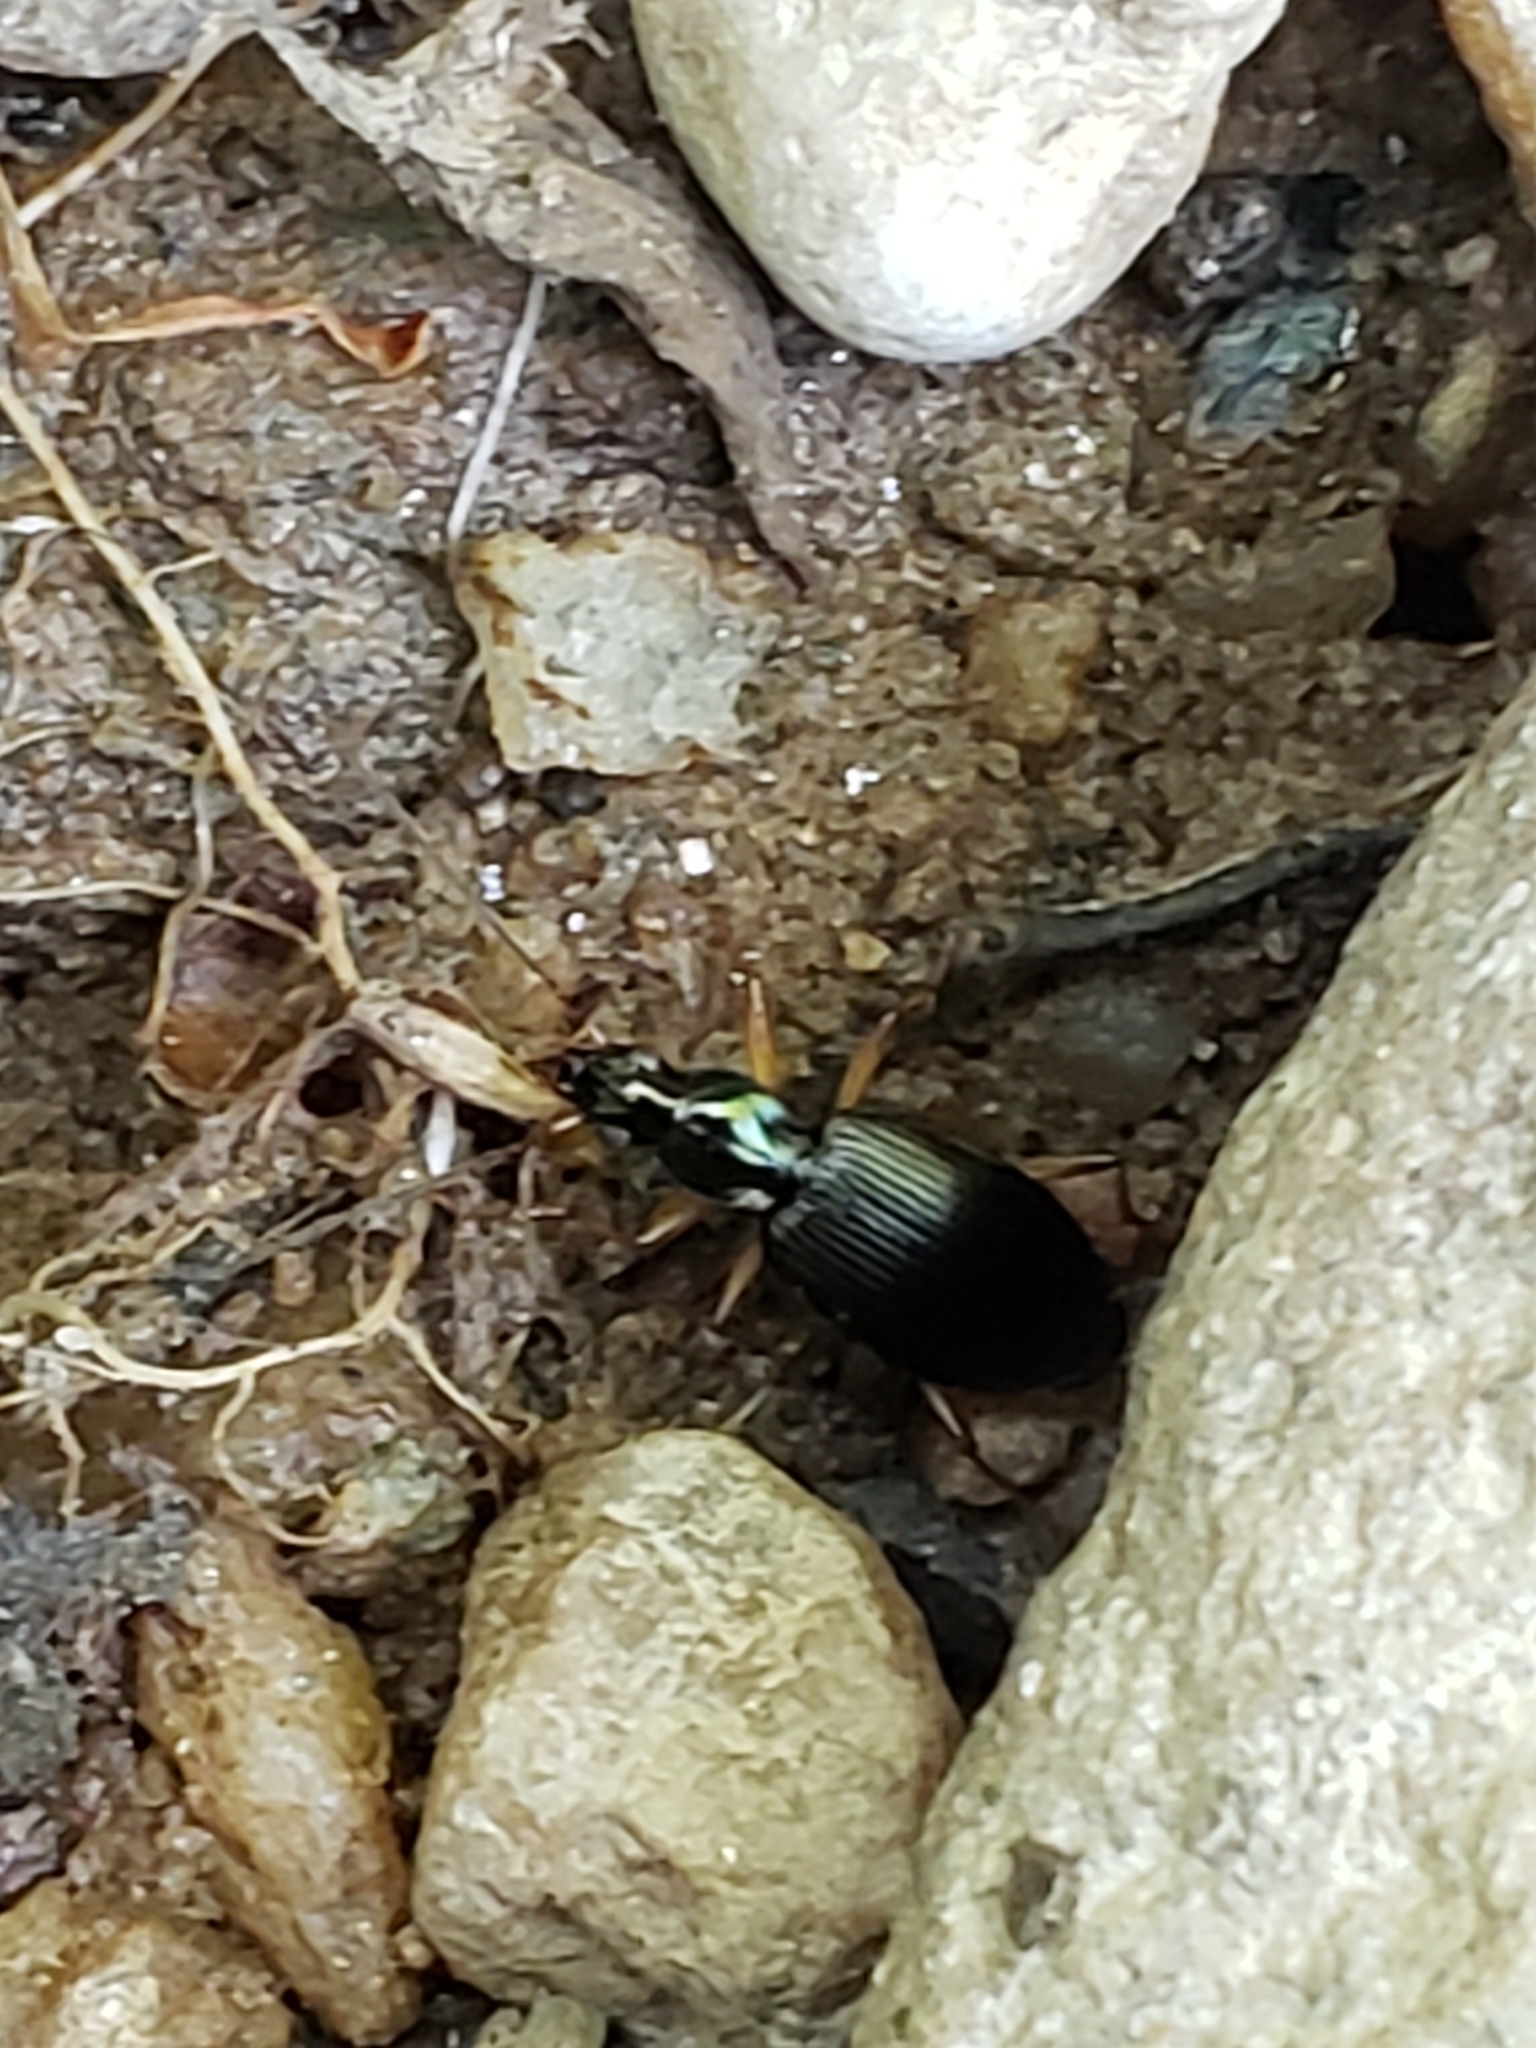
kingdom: Animalia
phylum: Arthropoda
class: Insecta
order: Coleoptera
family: Carabidae
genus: Agonum
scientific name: Agonum extensicolle
